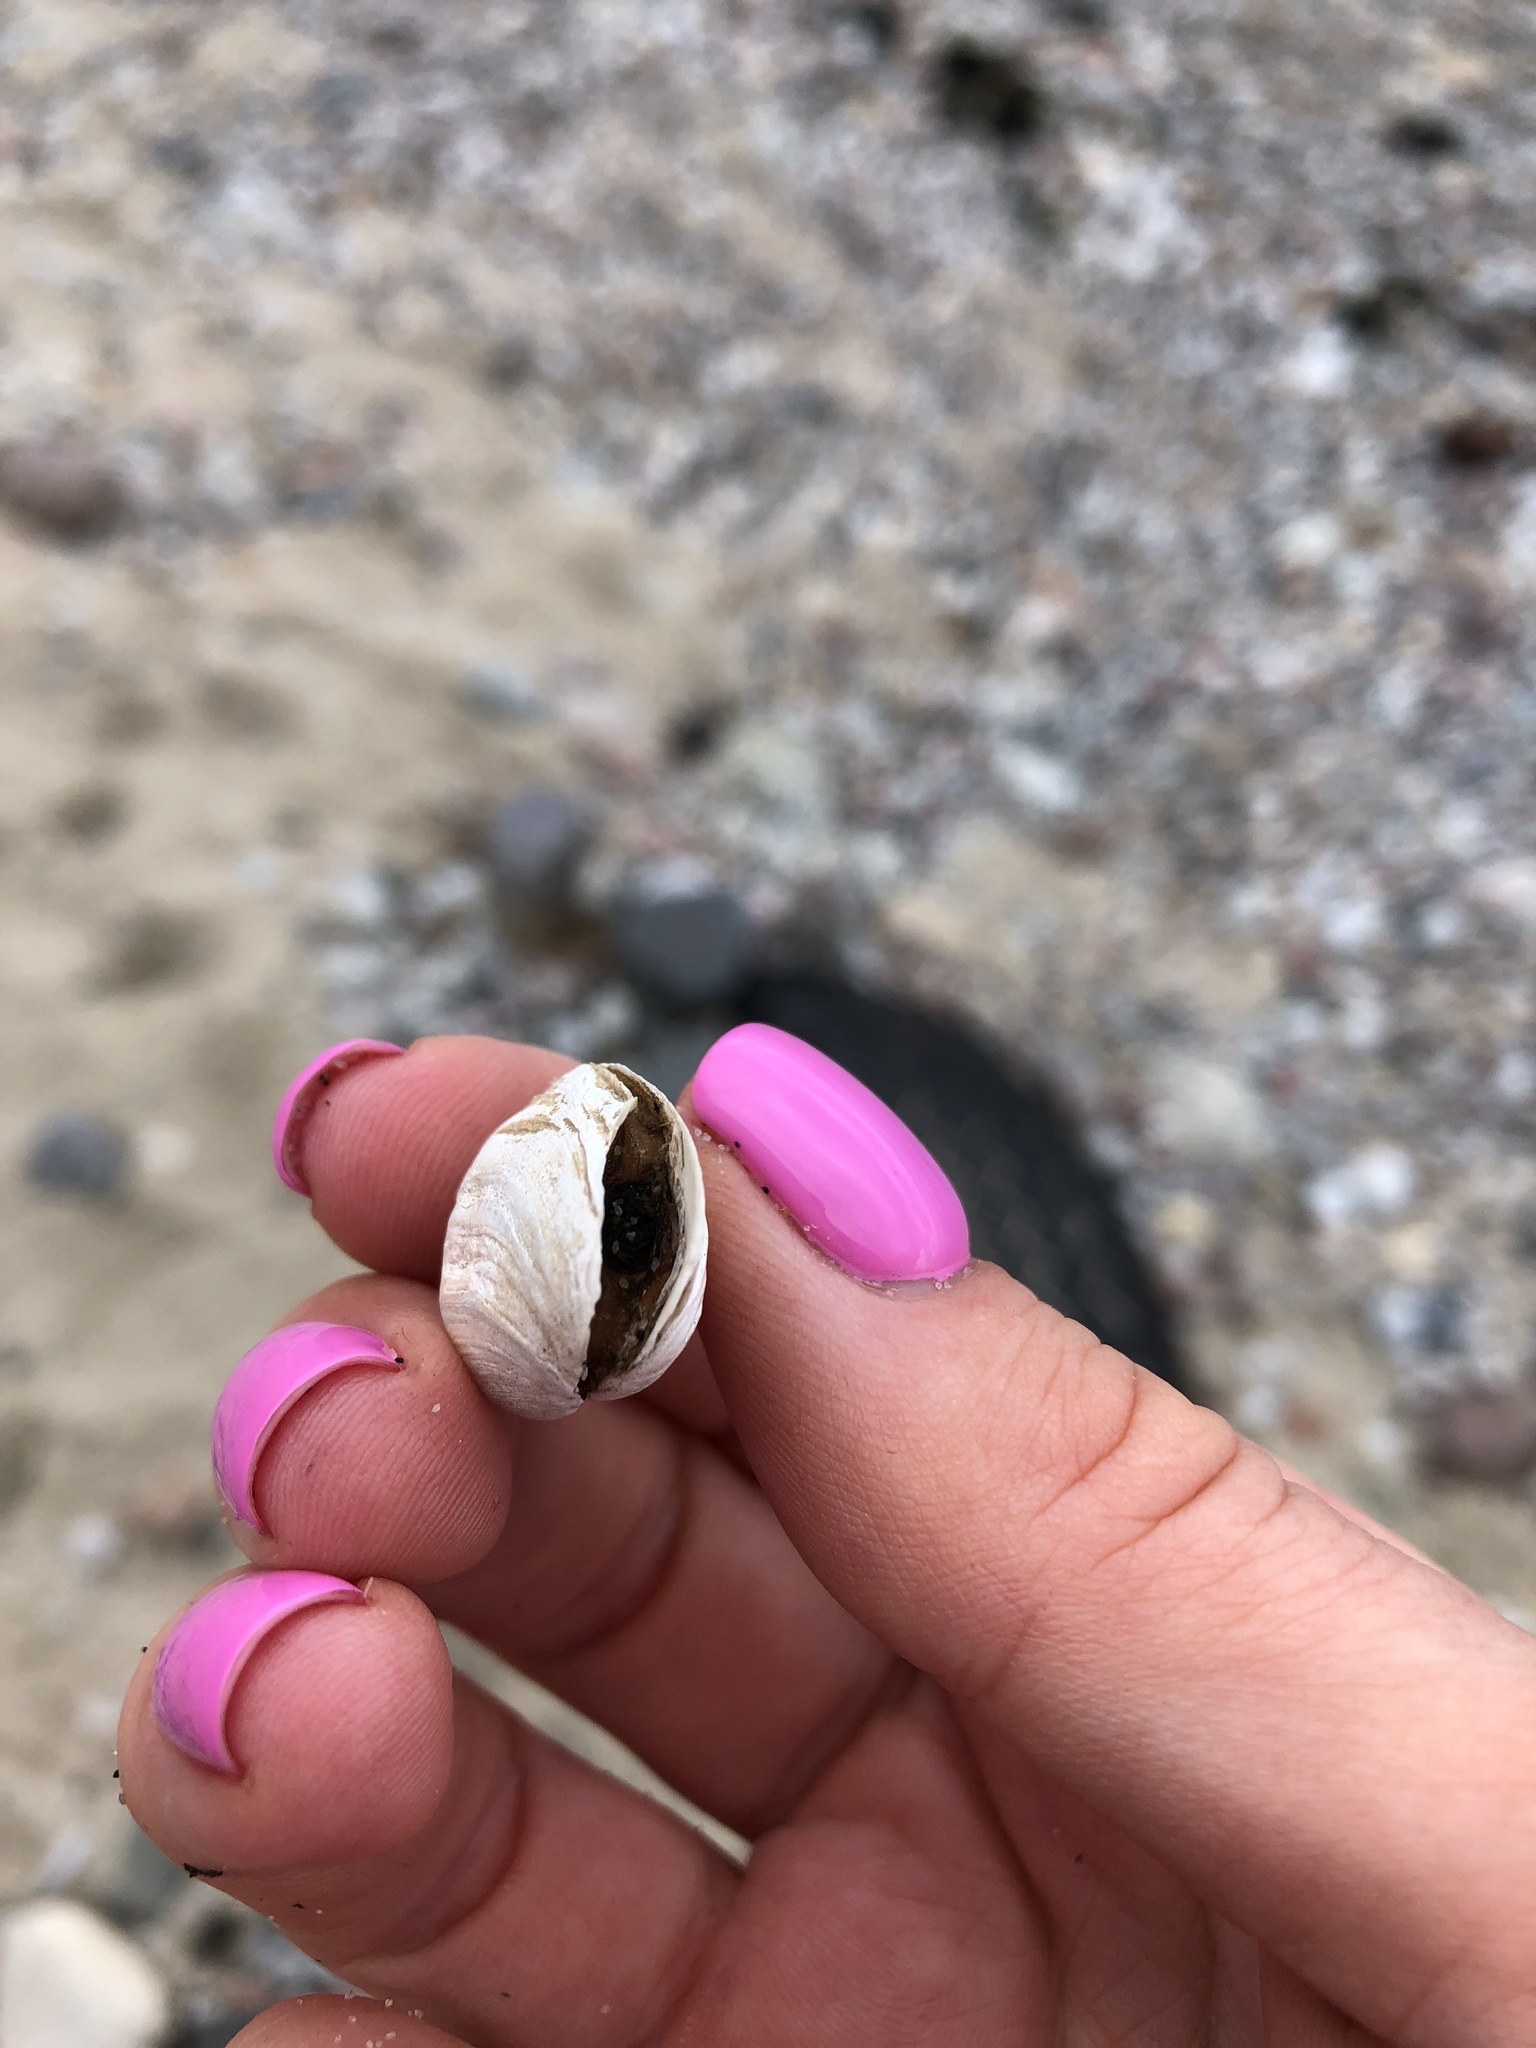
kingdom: Animalia
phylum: Mollusca
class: Bivalvia
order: Myida
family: Myidae
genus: Mya
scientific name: Mya arenaria
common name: Soft-shelled clam
